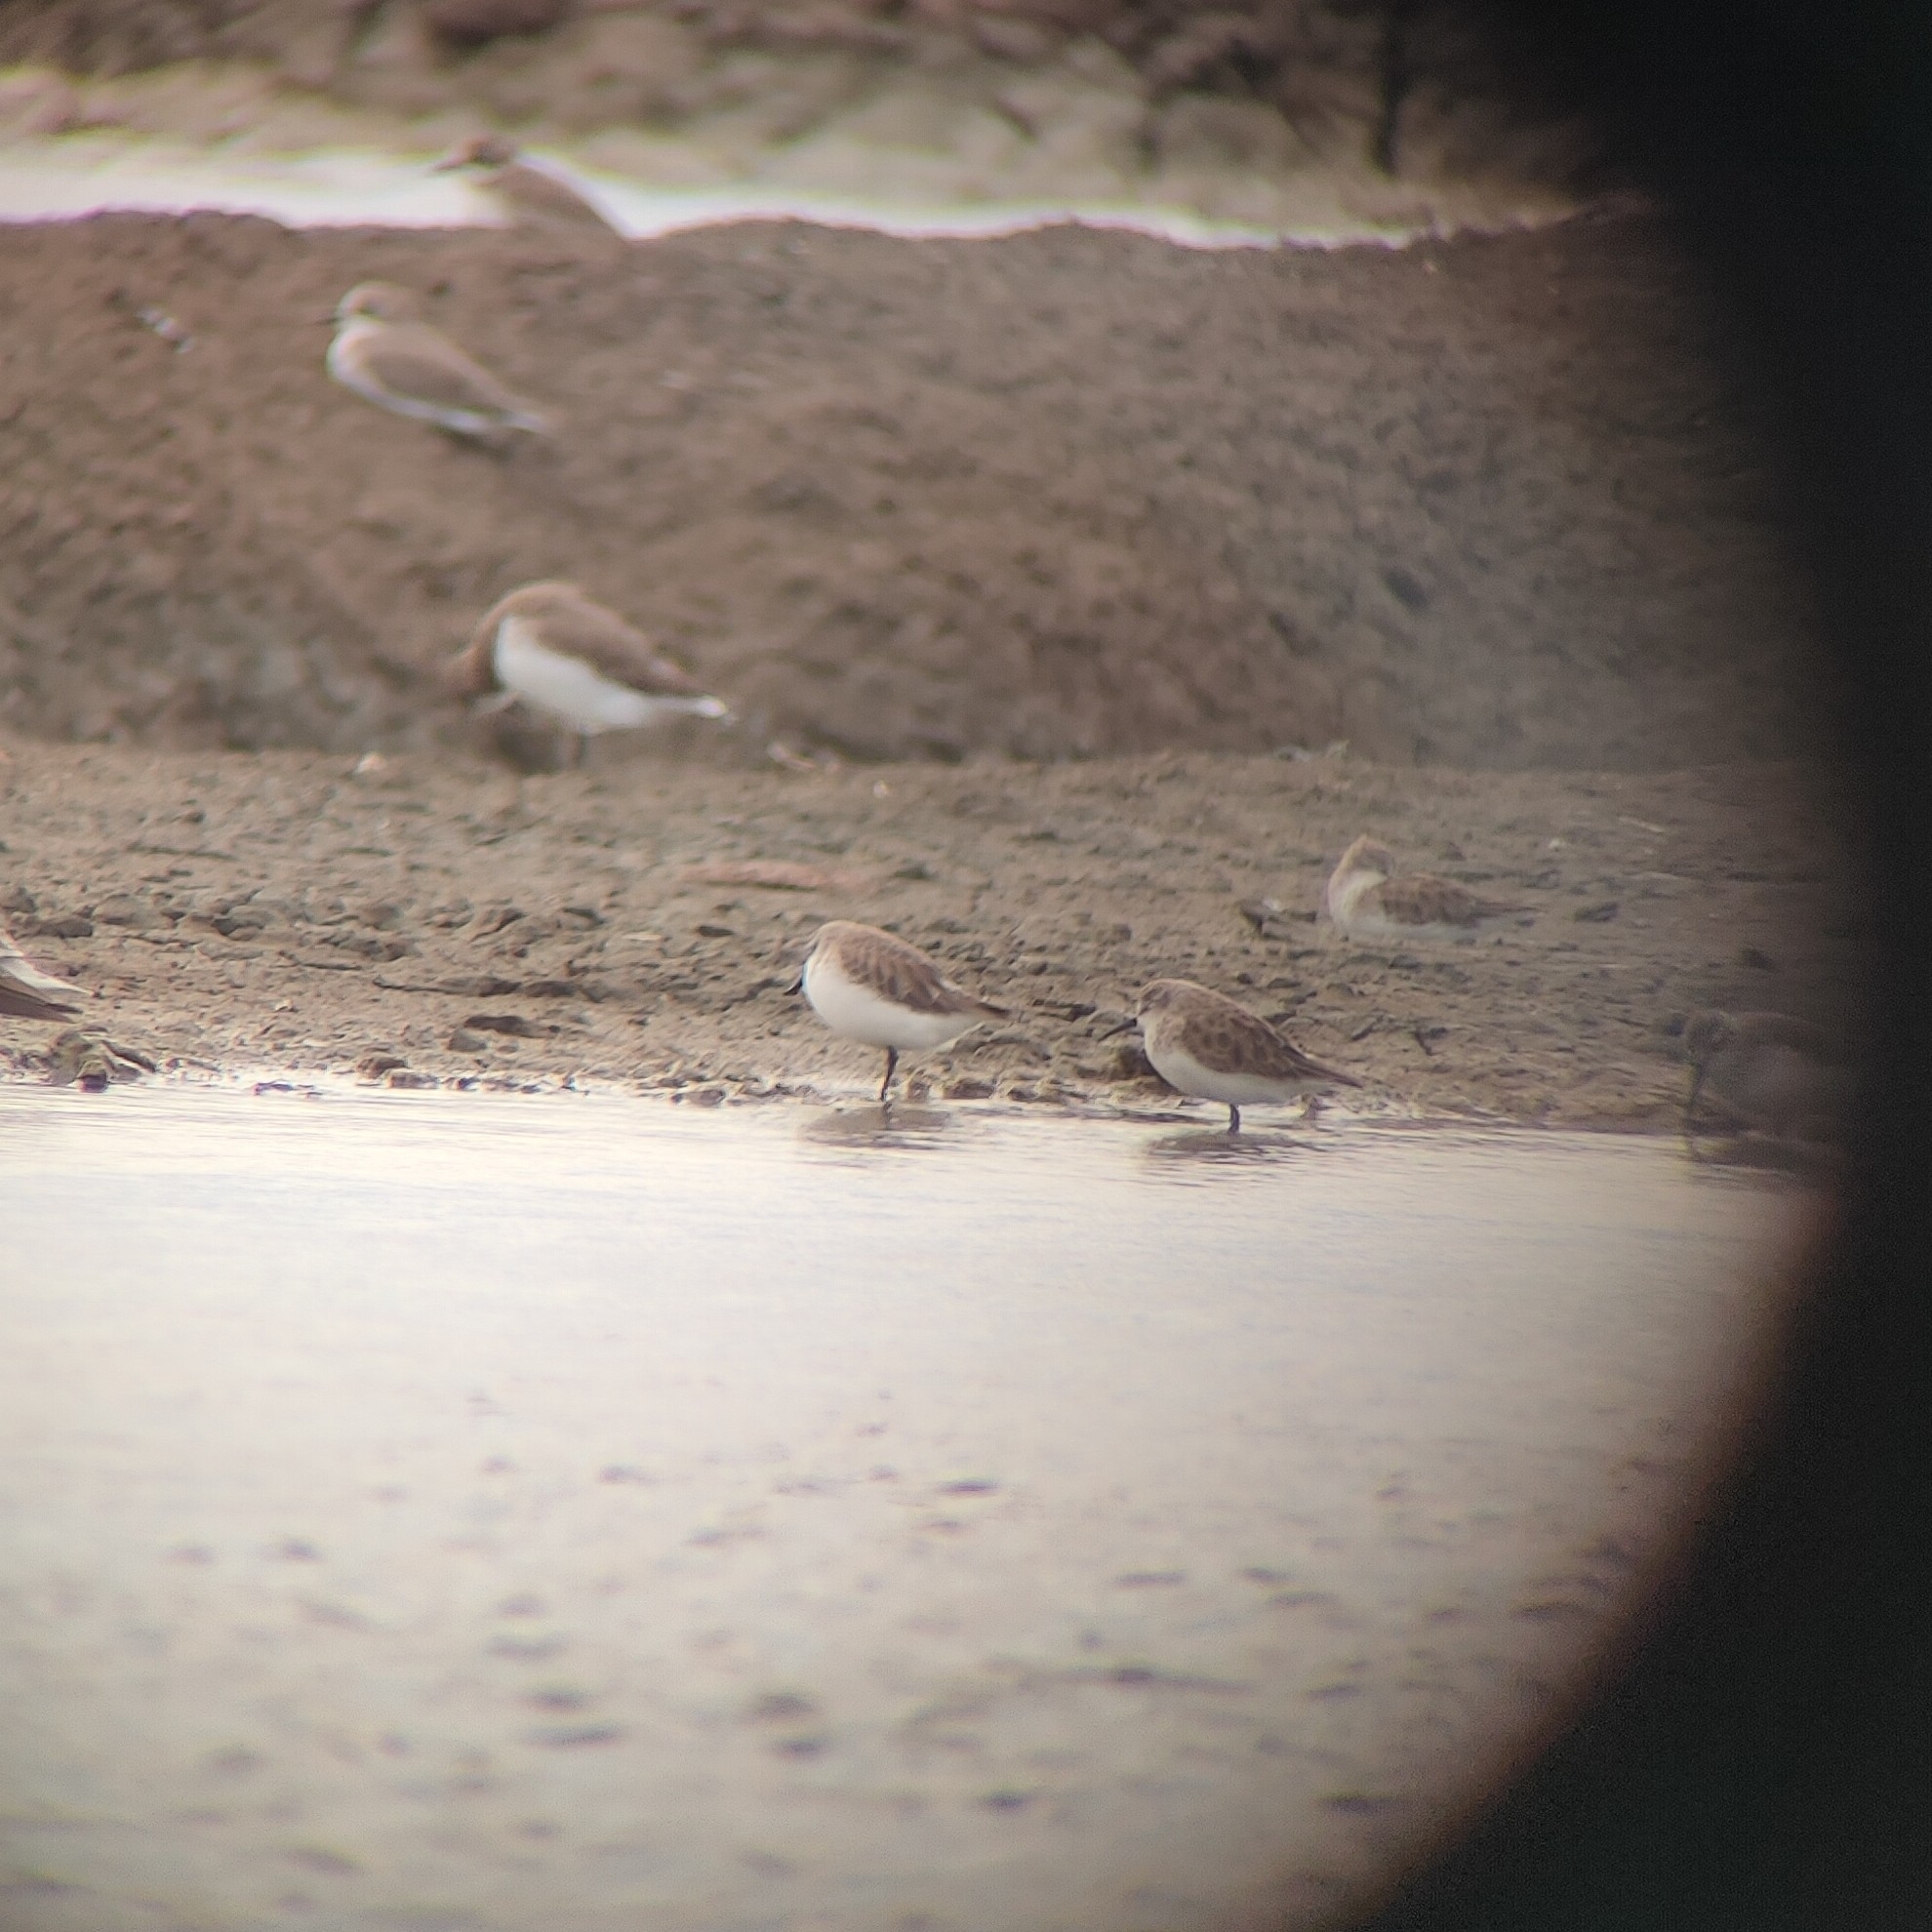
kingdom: Animalia
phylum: Chordata
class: Aves
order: Charadriiformes
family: Scolopacidae
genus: Calidris
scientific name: Calidris pygmaea
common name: Spoon-billed sandpiper
